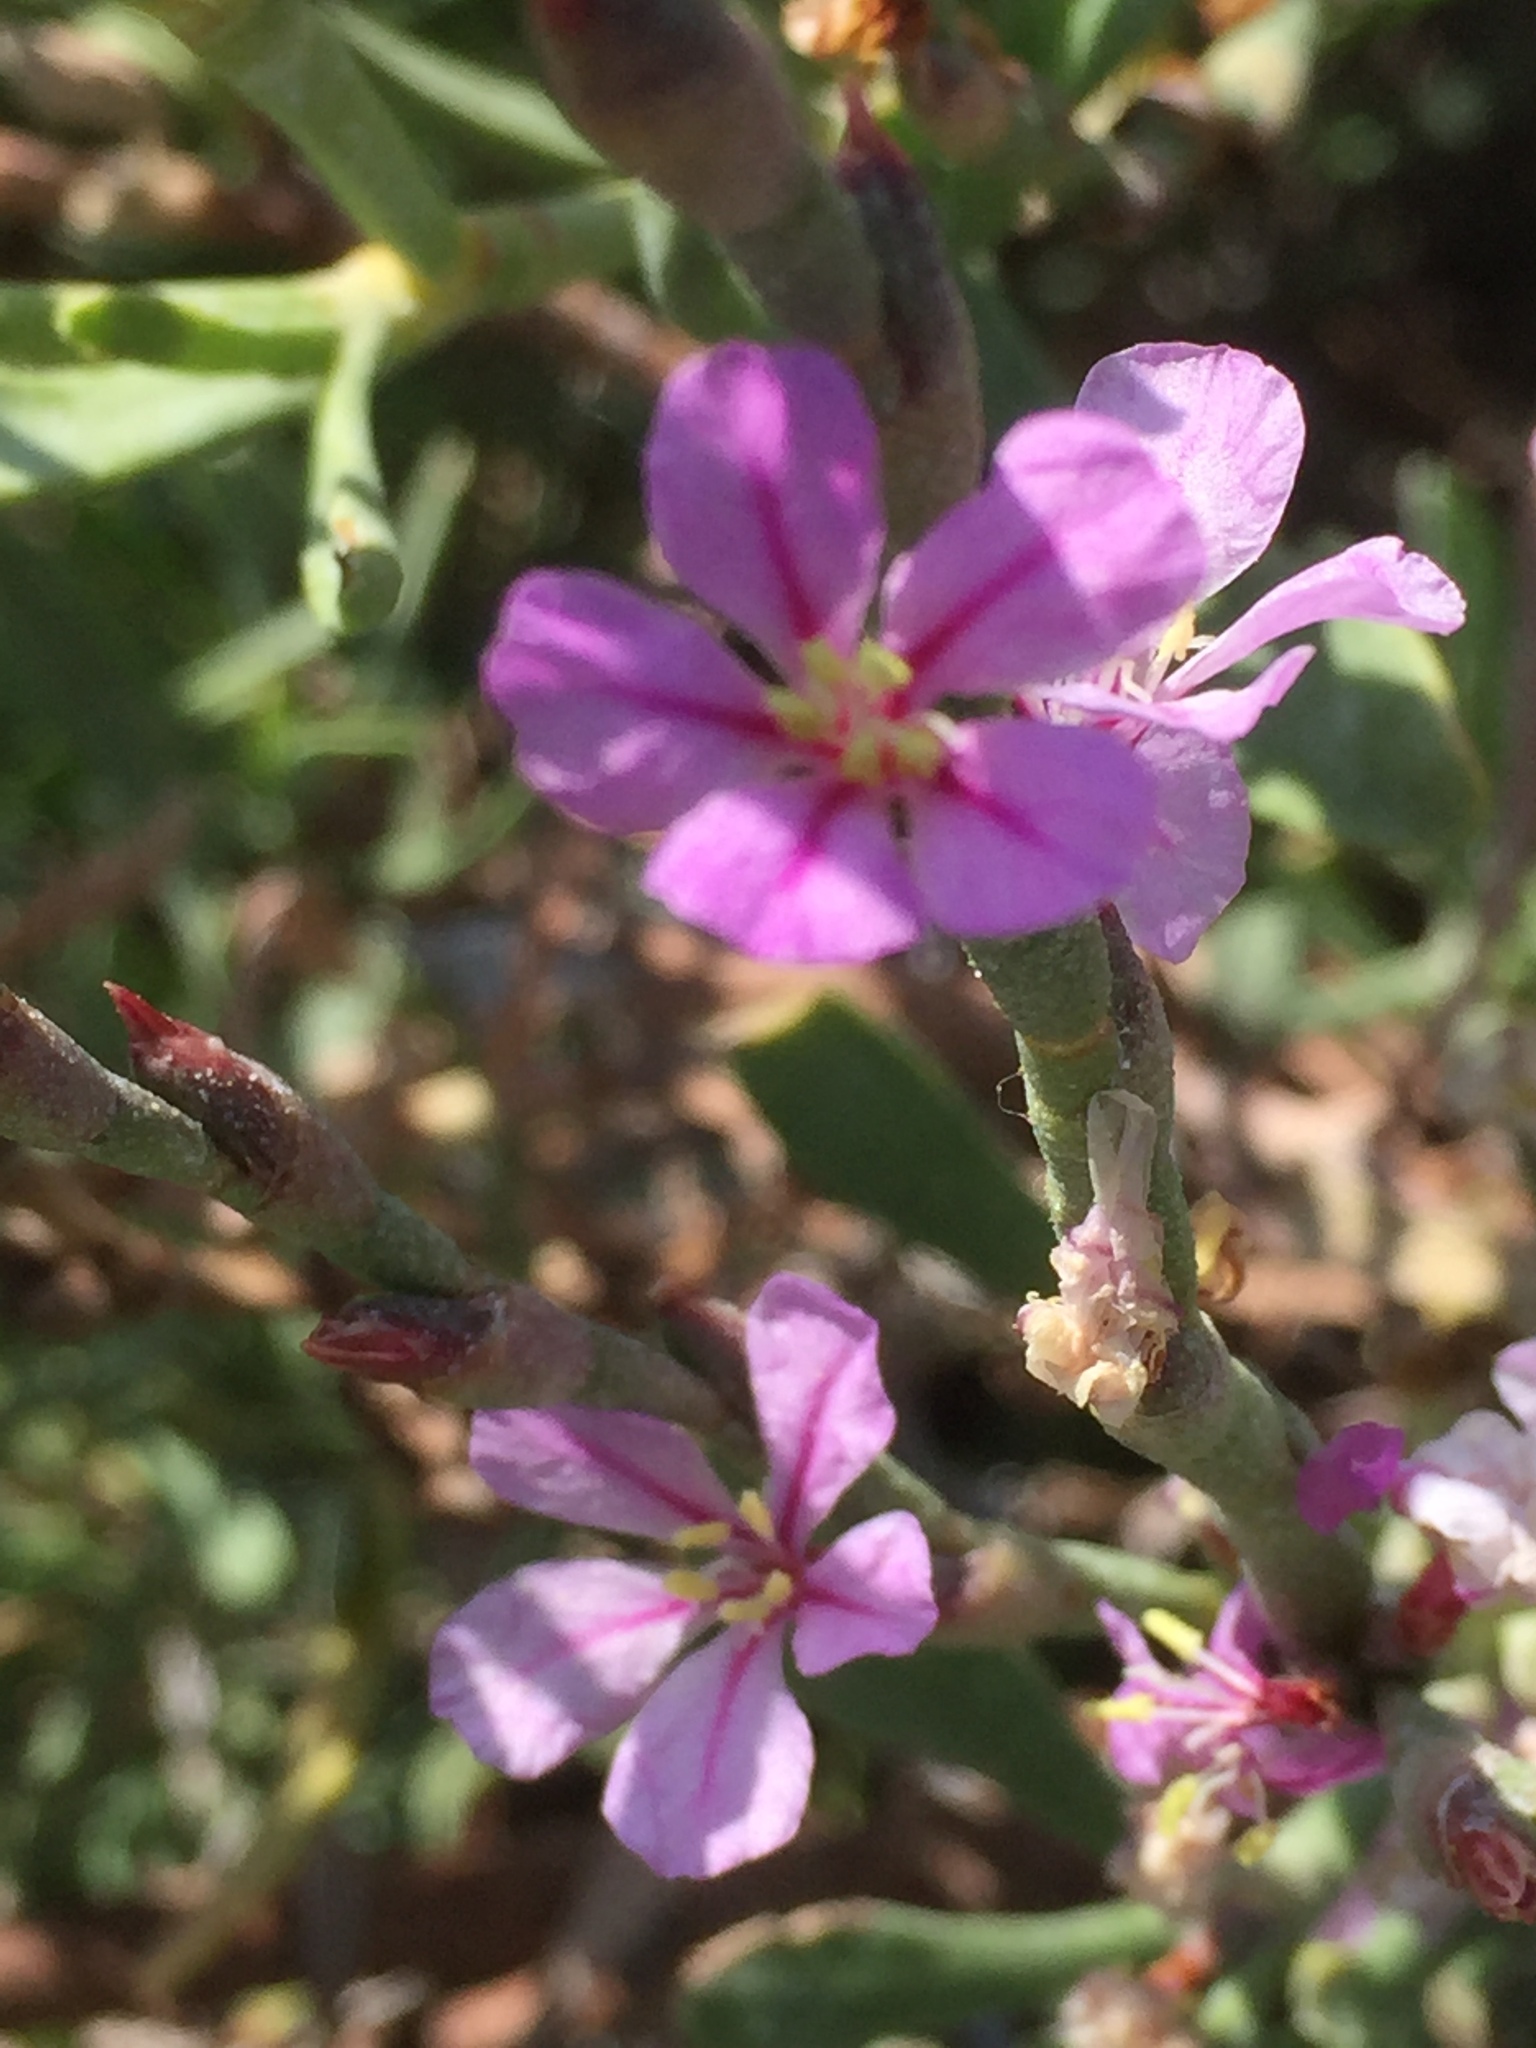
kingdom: Plantae
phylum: Tracheophyta
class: Magnoliopsida
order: Caryophyllales
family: Plumbaginaceae
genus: Limoniastrum
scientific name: Limoniastrum monopetalum
